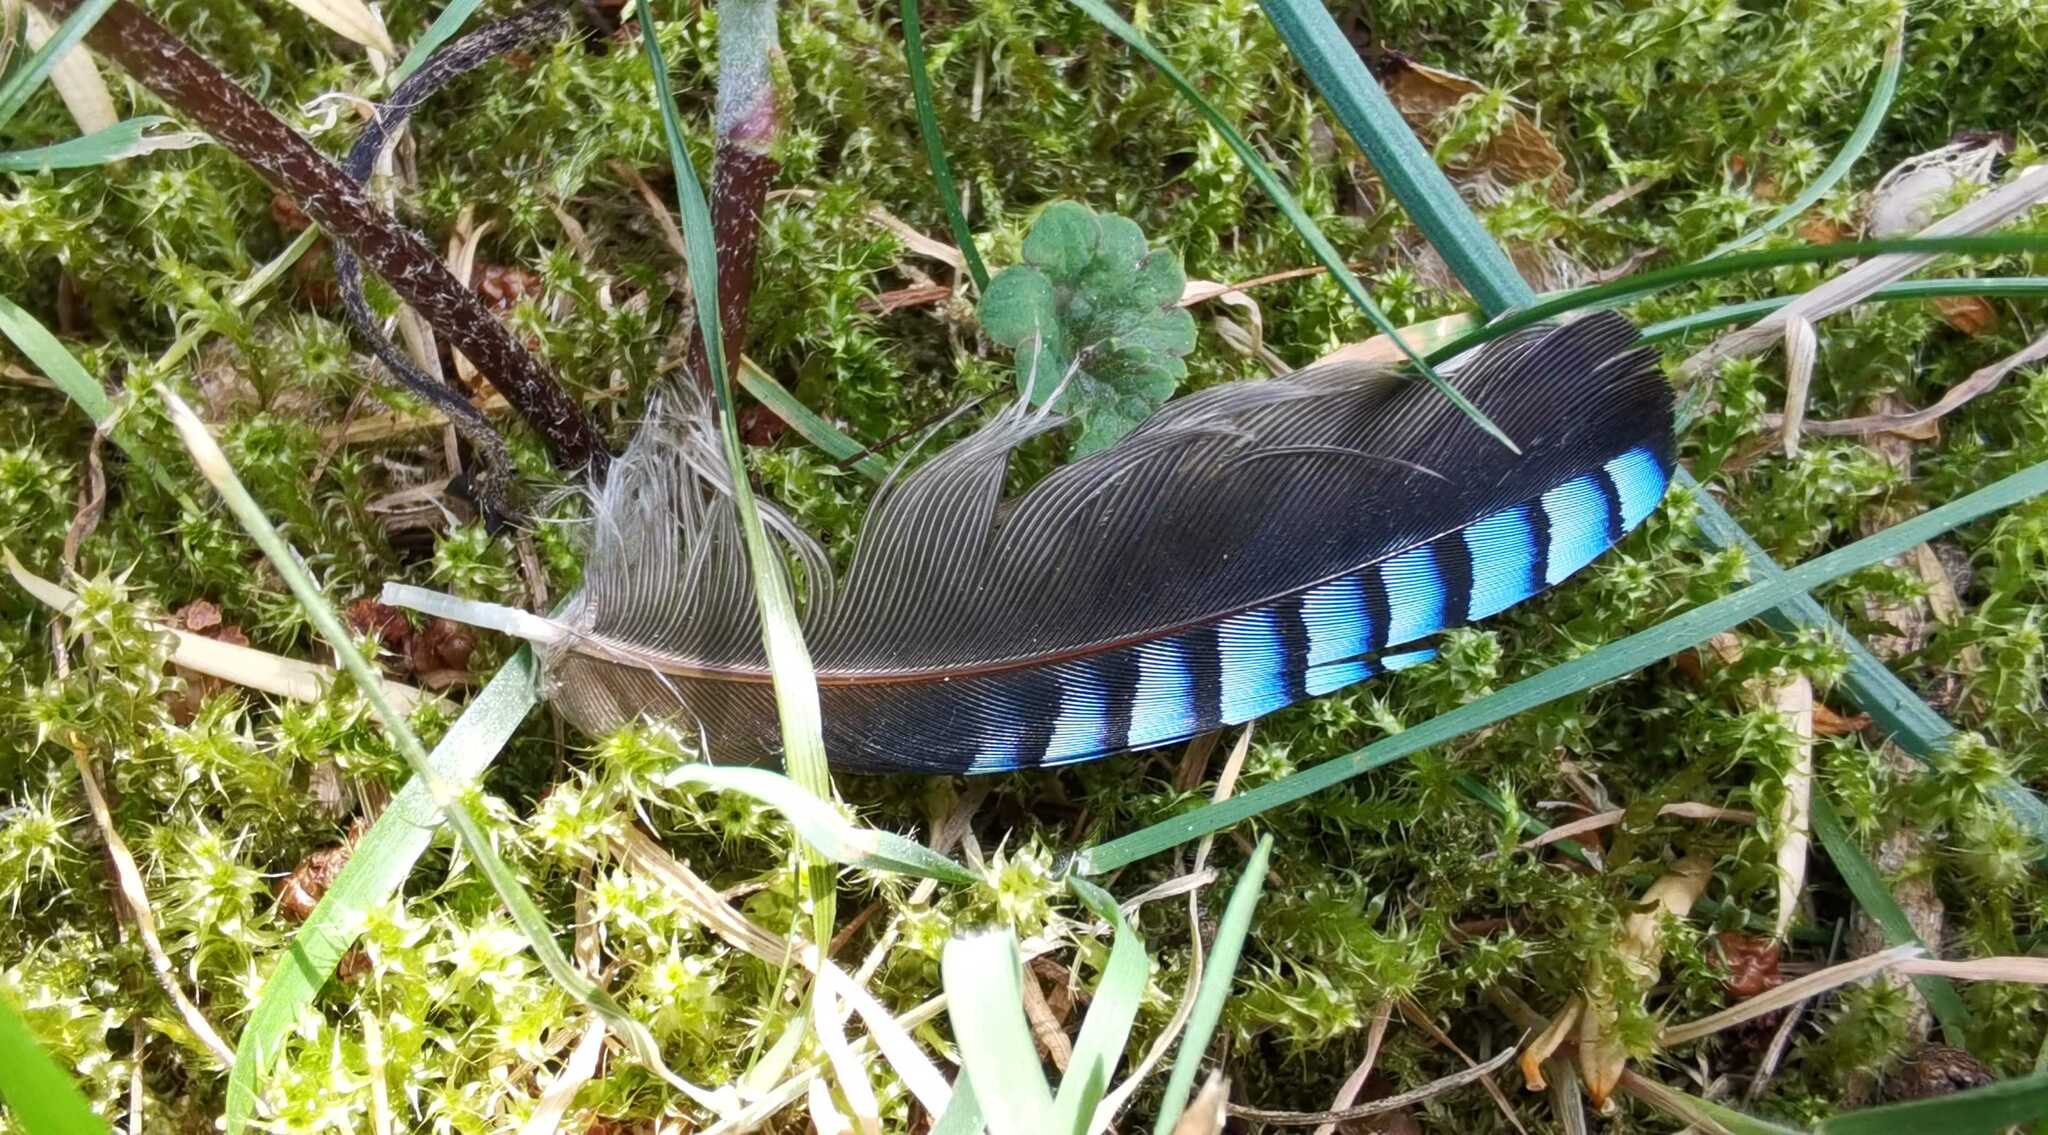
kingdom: Animalia
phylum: Chordata
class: Aves
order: Passeriformes
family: Corvidae
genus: Garrulus
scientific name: Garrulus glandarius
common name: Eurasian jay
